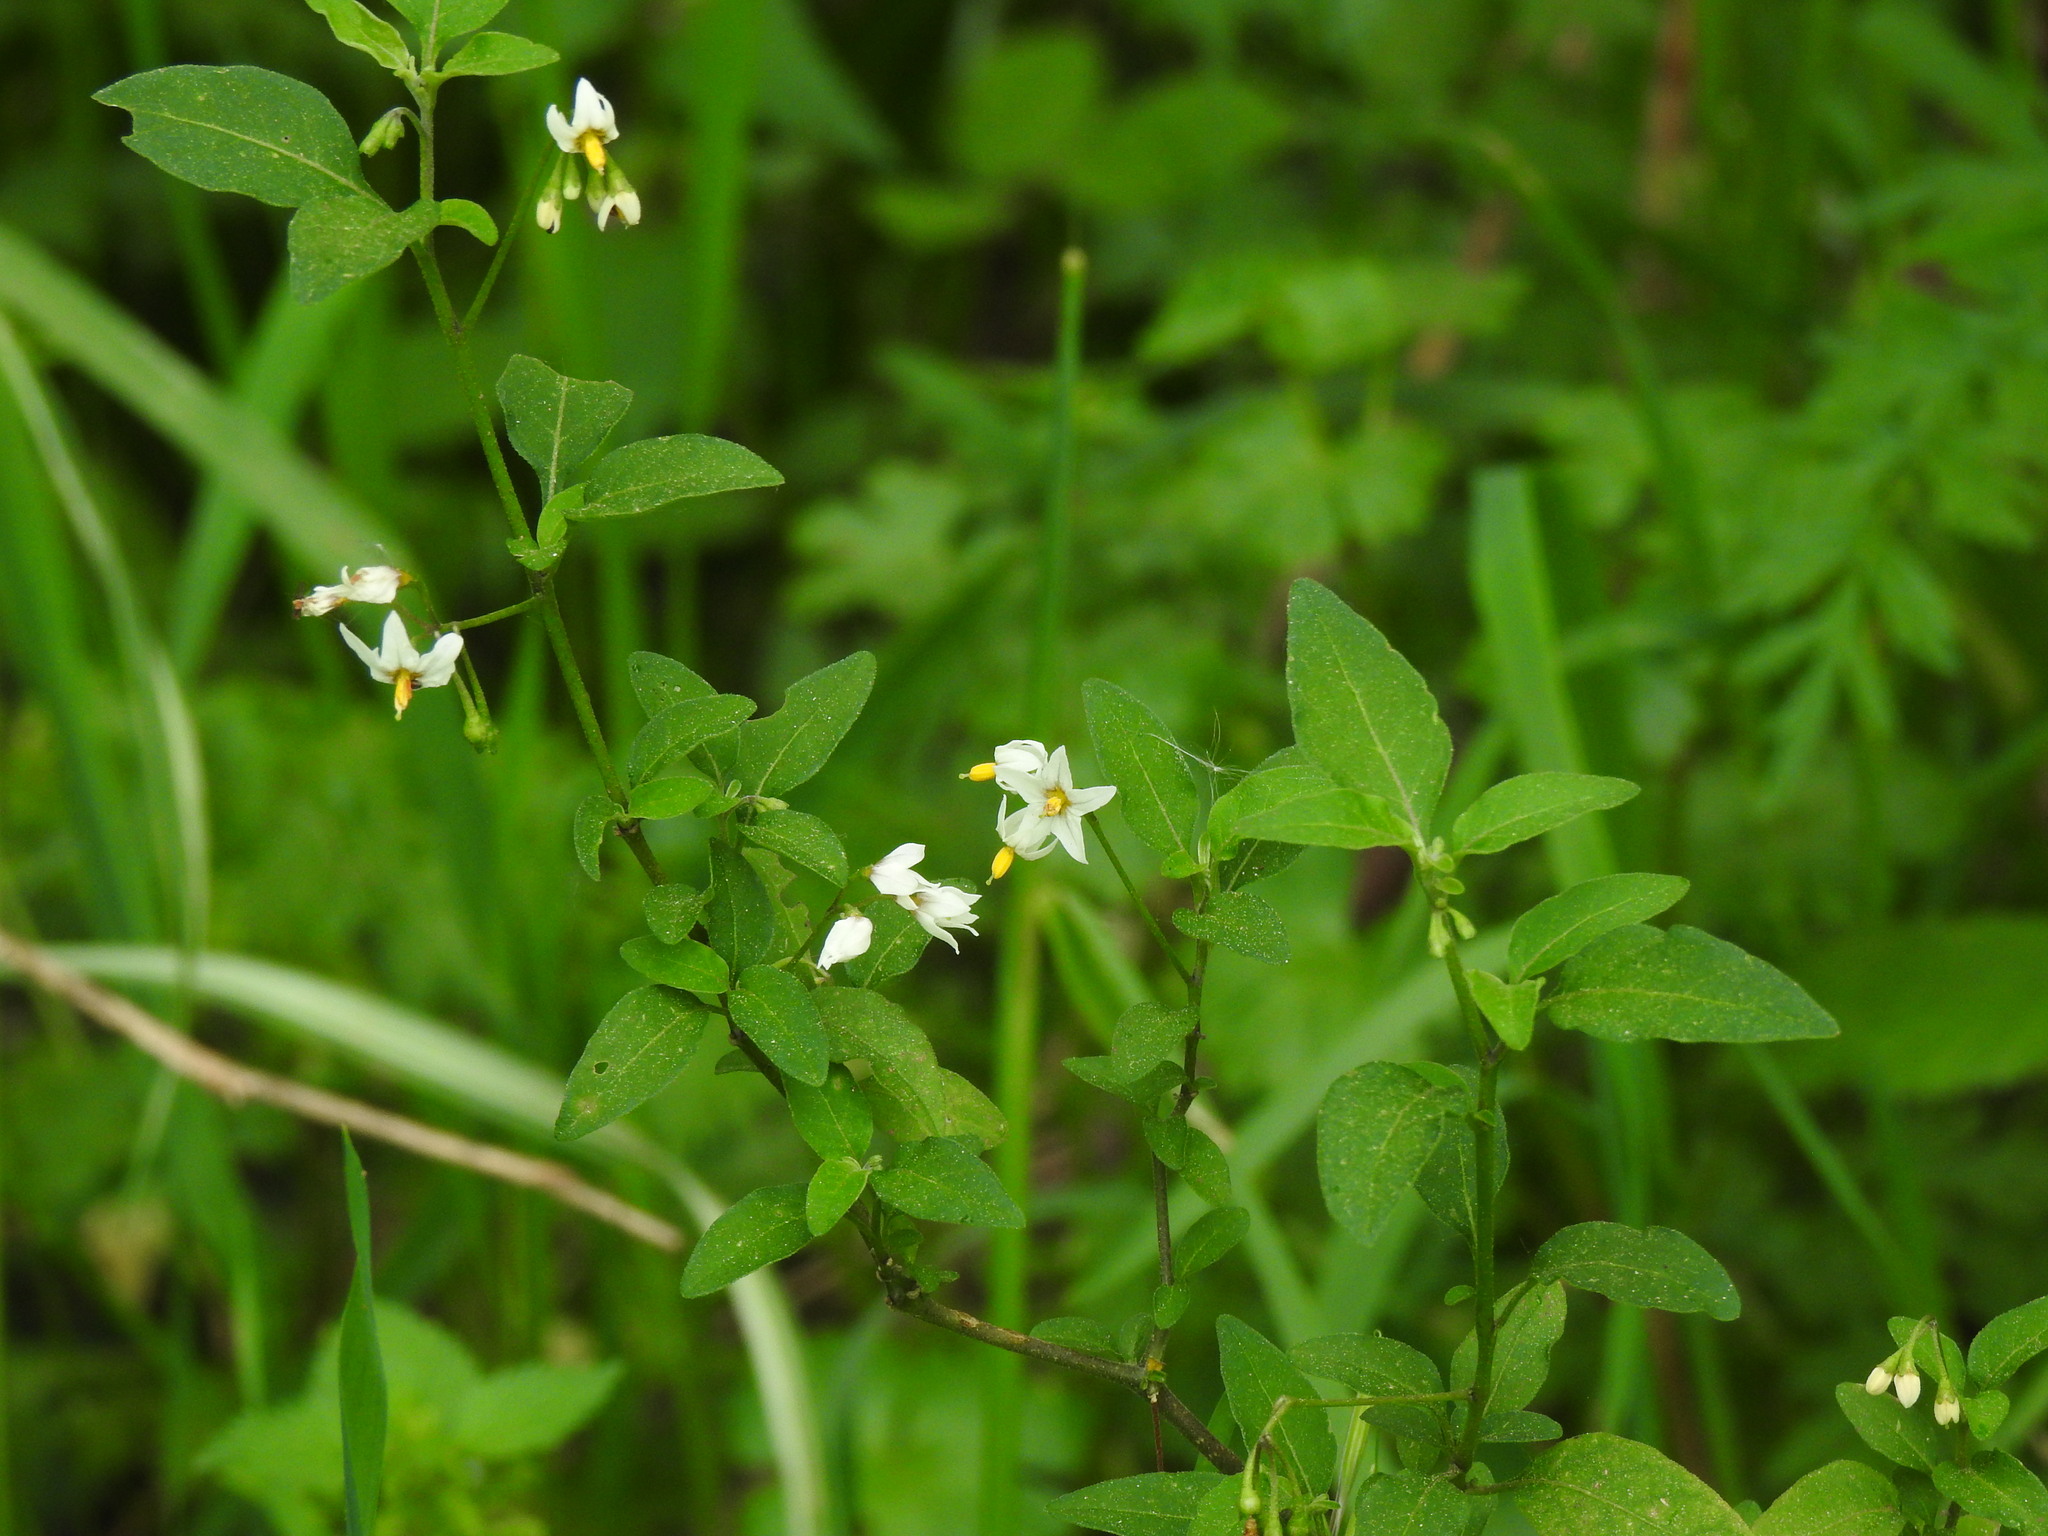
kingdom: Plantae
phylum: Tracheophyta
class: Magnoliopsida
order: Solanales
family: Solanaceae
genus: Solanum
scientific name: Solanum chenopodioides
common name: Tall nightshade
